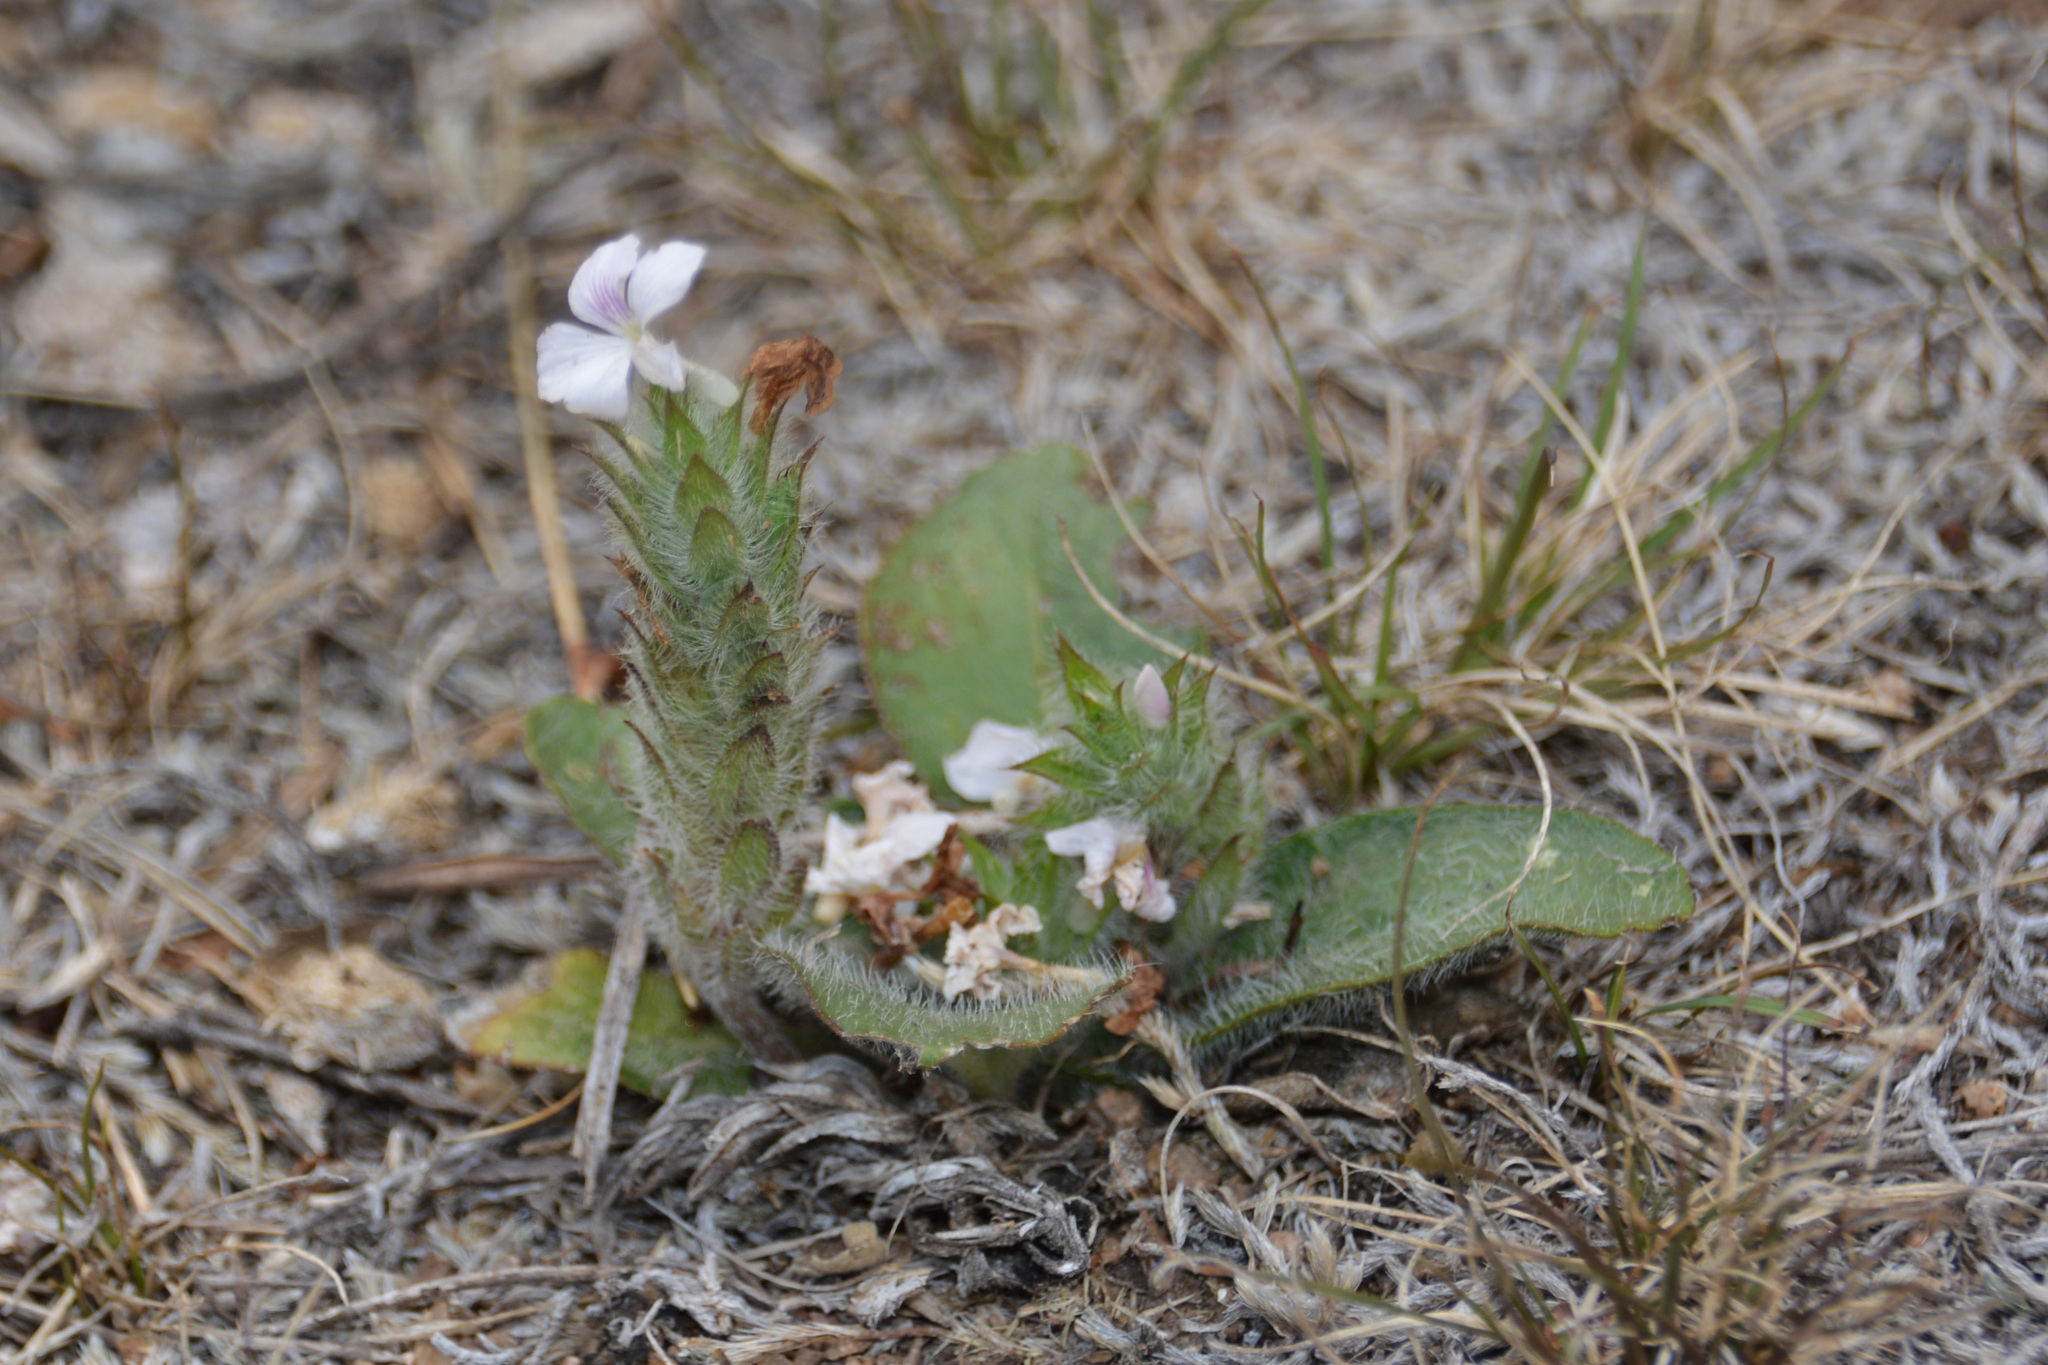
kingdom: Plantae
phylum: Tracheophyta
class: Magnoliopsida
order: Lamiales
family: Acanthaceae
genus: Stenandrium
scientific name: Stenandrium diphyllum
